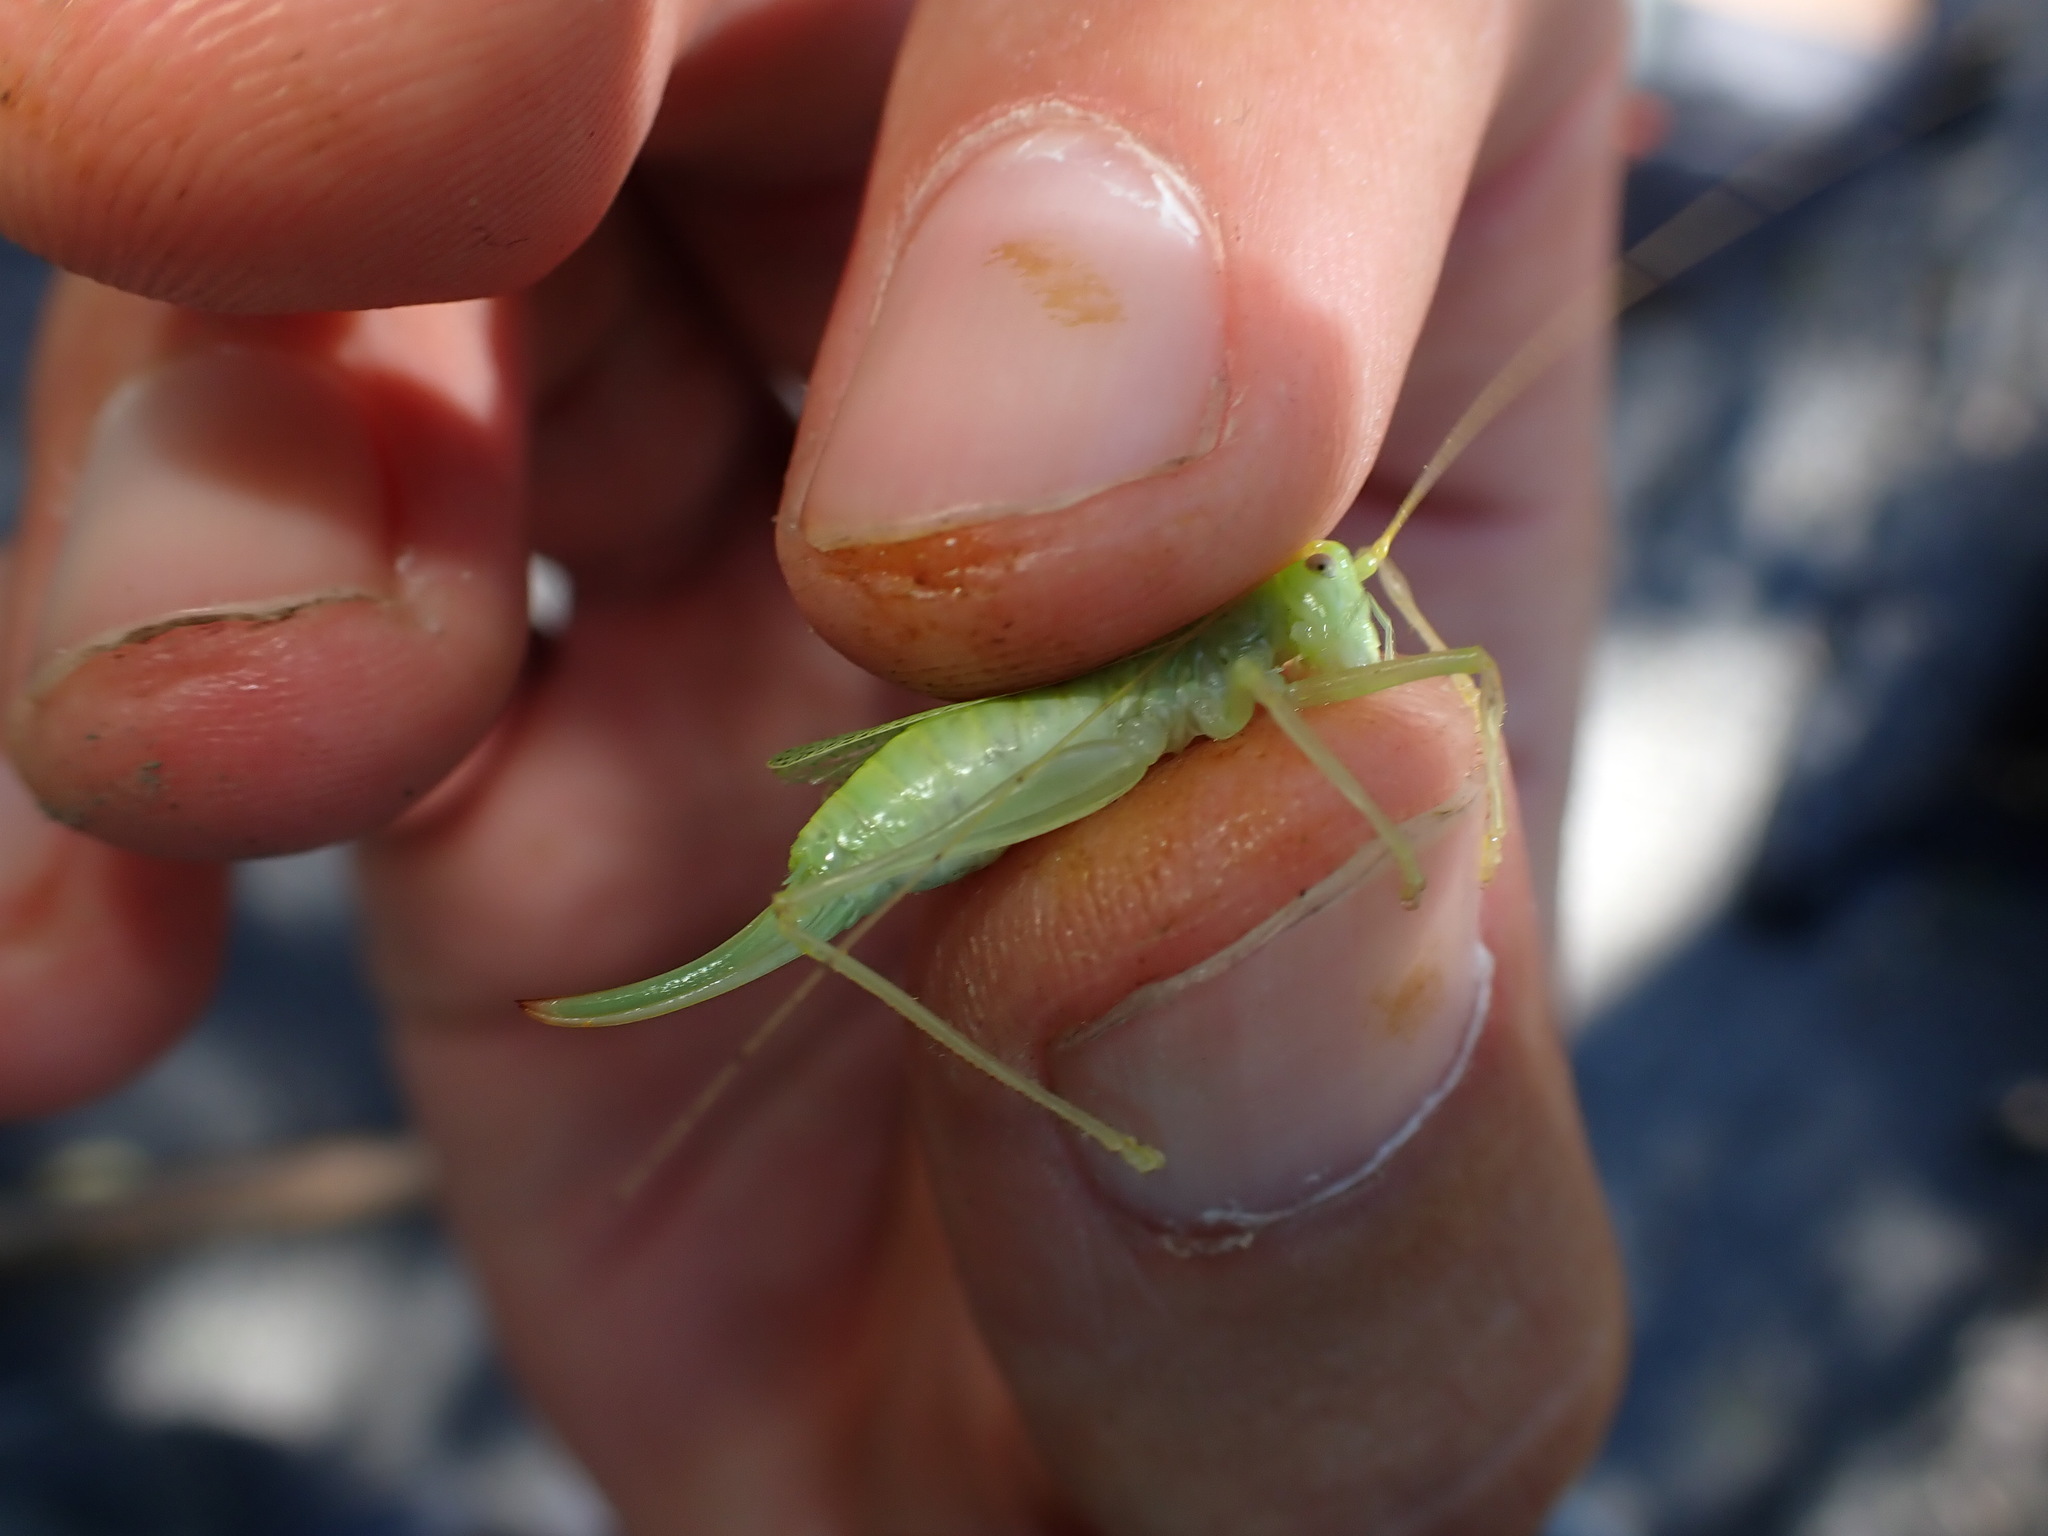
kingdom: Animalia
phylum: Arthropoda
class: Insecta
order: Orthoptera
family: Tettigoniidae
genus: Meconema
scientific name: Meconema thalassinum
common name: Oak bush-cricket
